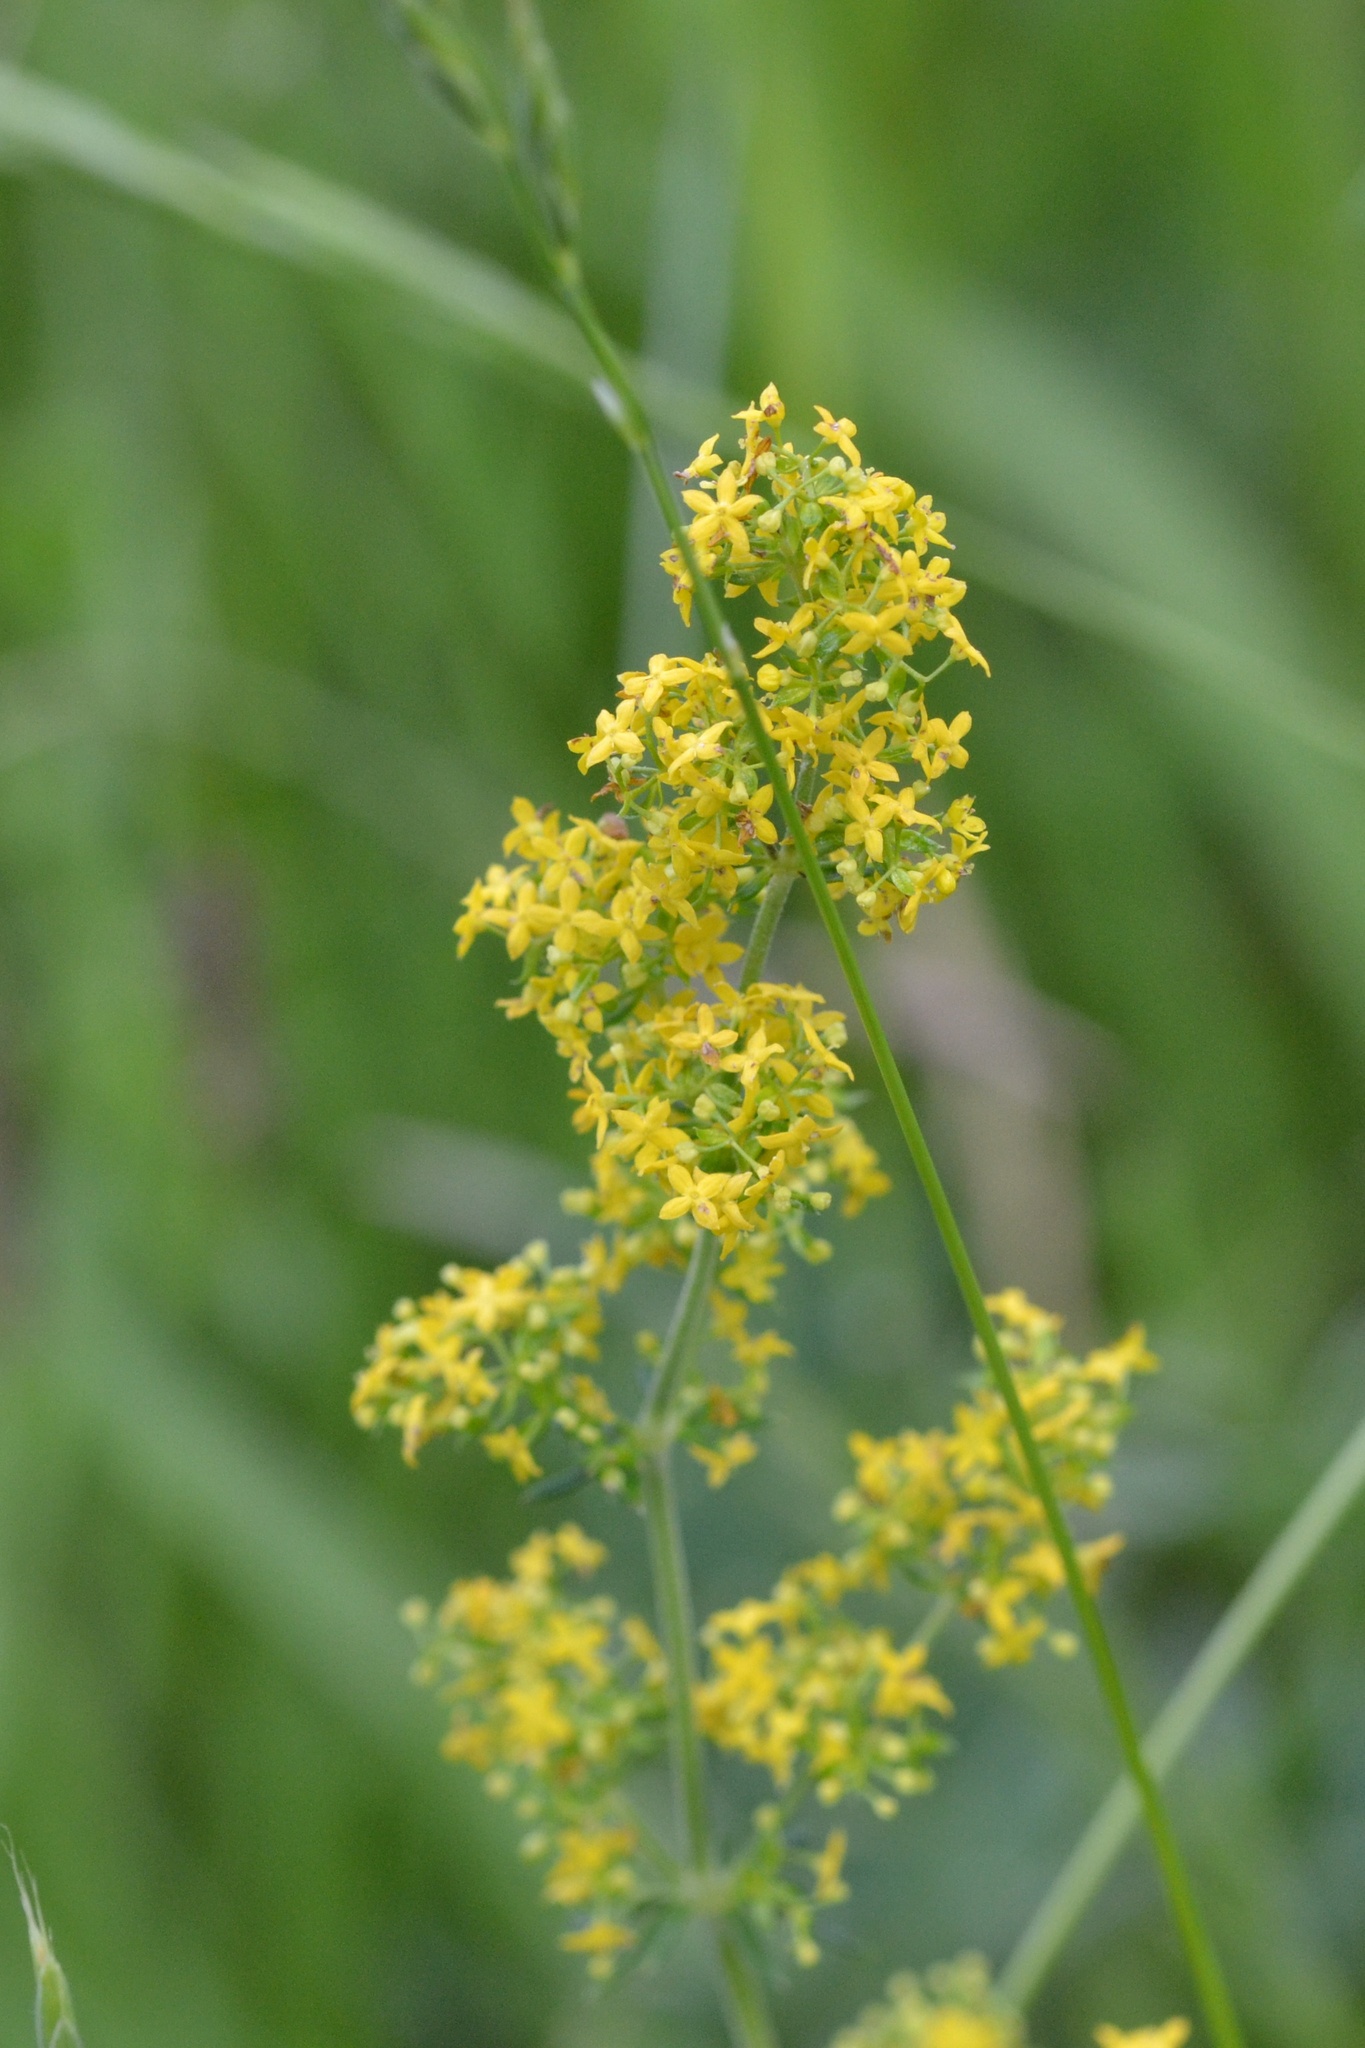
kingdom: Plantae
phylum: Tracheophyta
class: Magnoliopsida
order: Gentianales
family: Rubiaceae
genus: Galium
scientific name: Galium verum
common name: Lady's bedstraw
